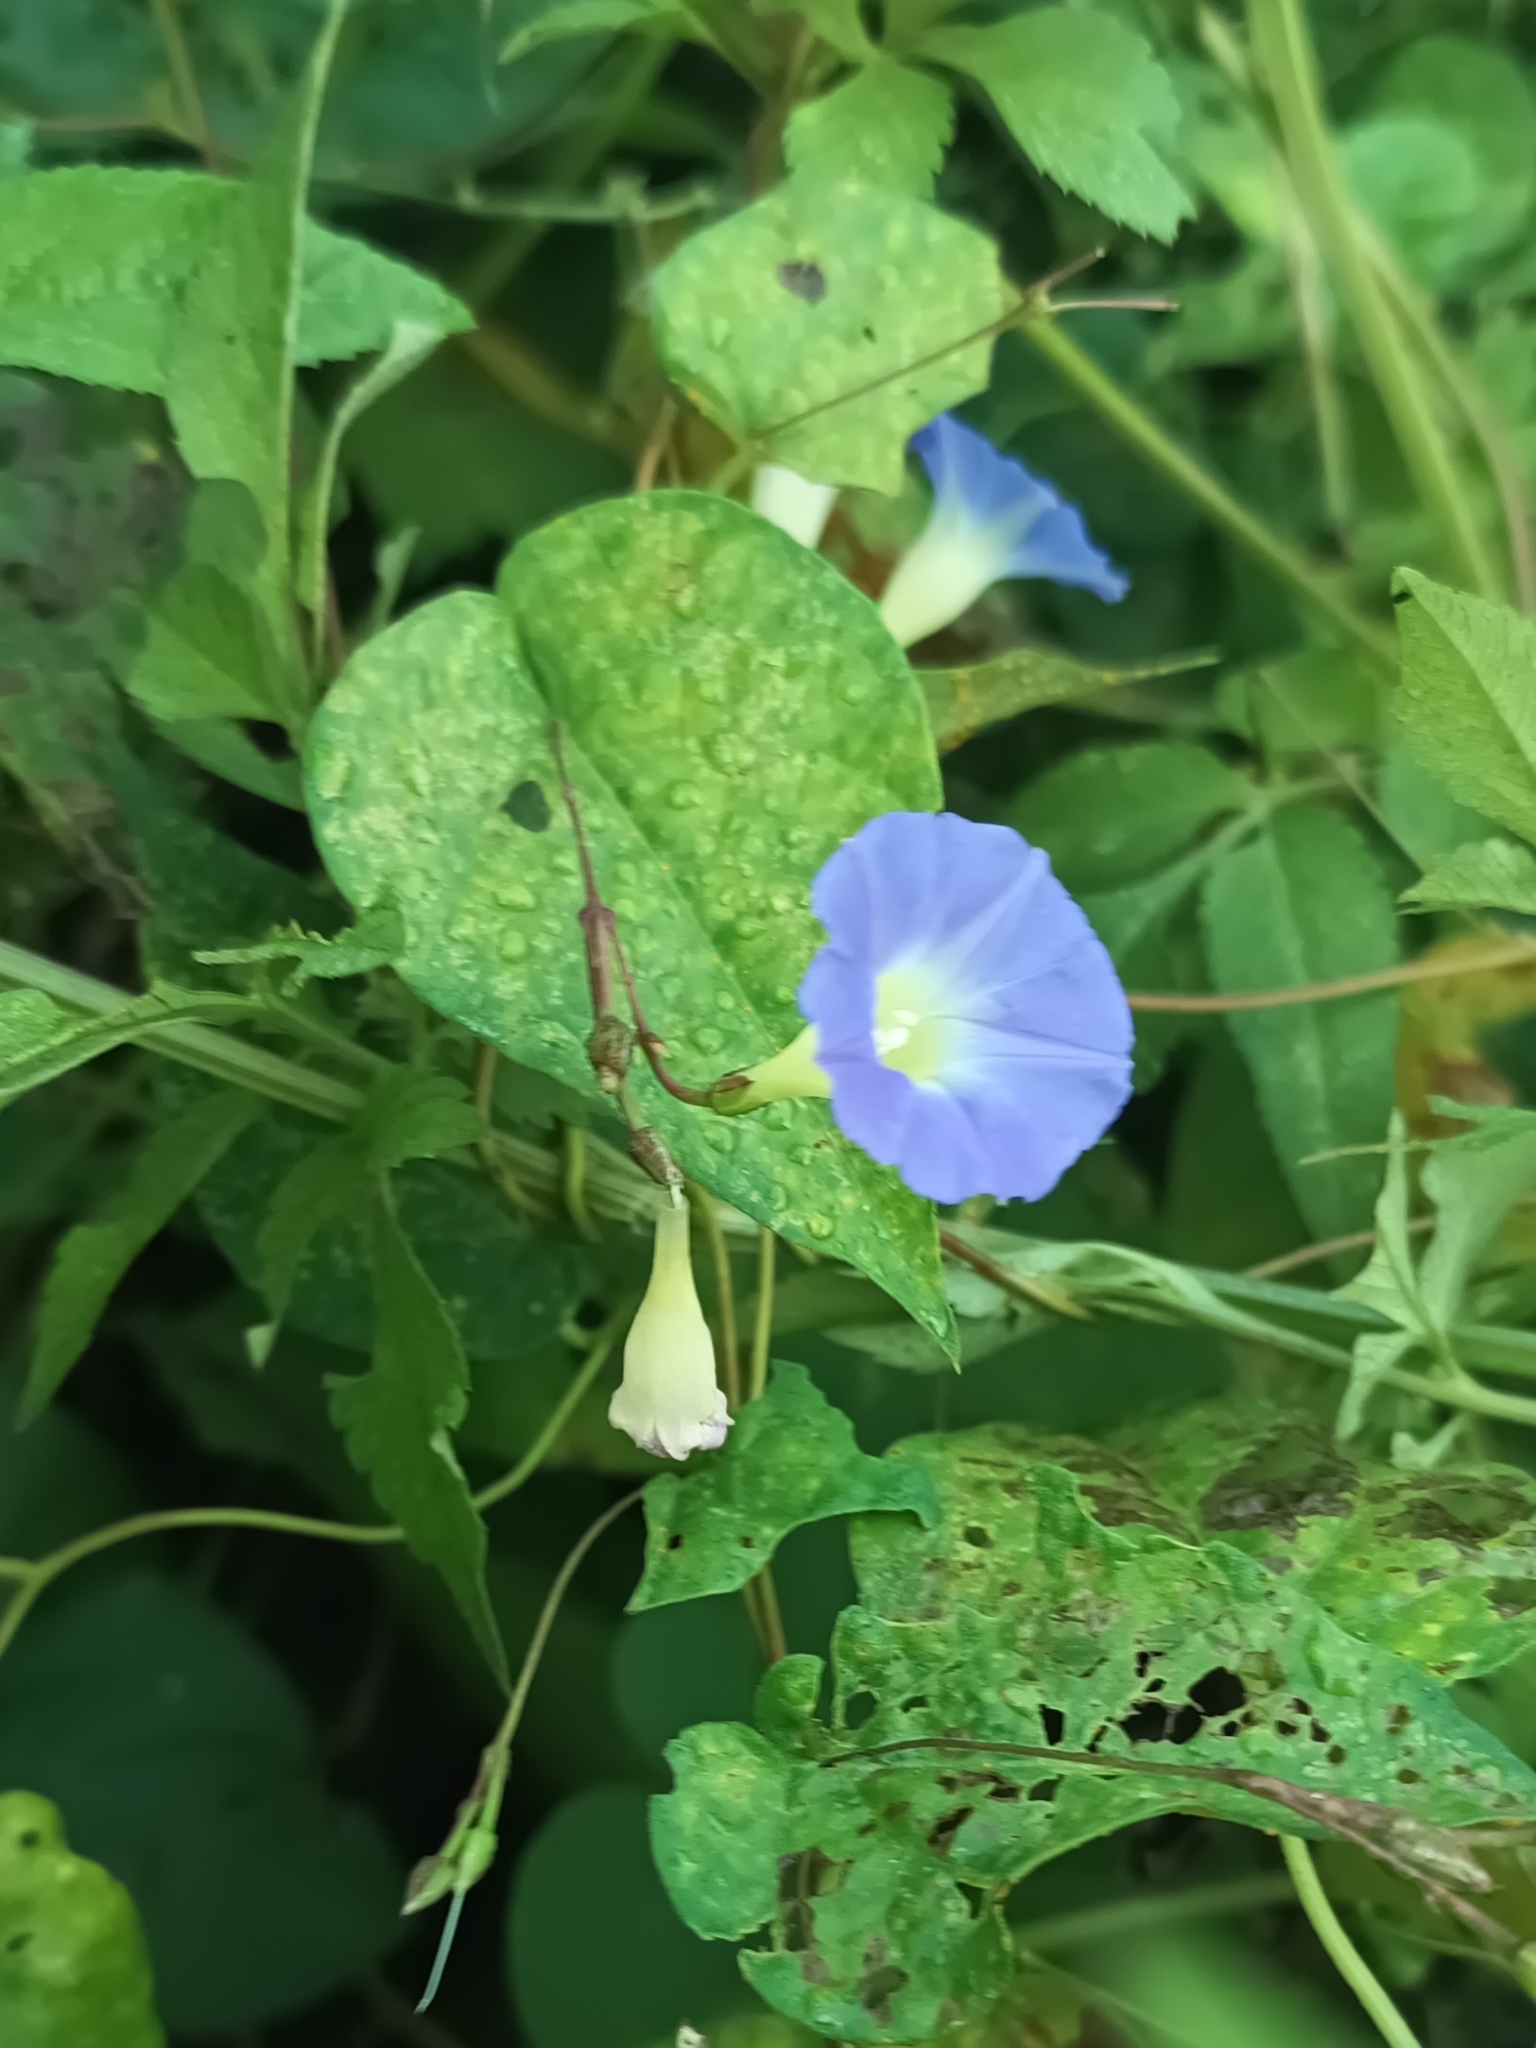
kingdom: Plantae
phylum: Tracheophyta
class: Magnoliopsida
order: Solanales
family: Convolvulaceae
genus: Ipomoea
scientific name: Ipomoea aristolochiifolia
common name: Aristolochia-leaved morning-glory
